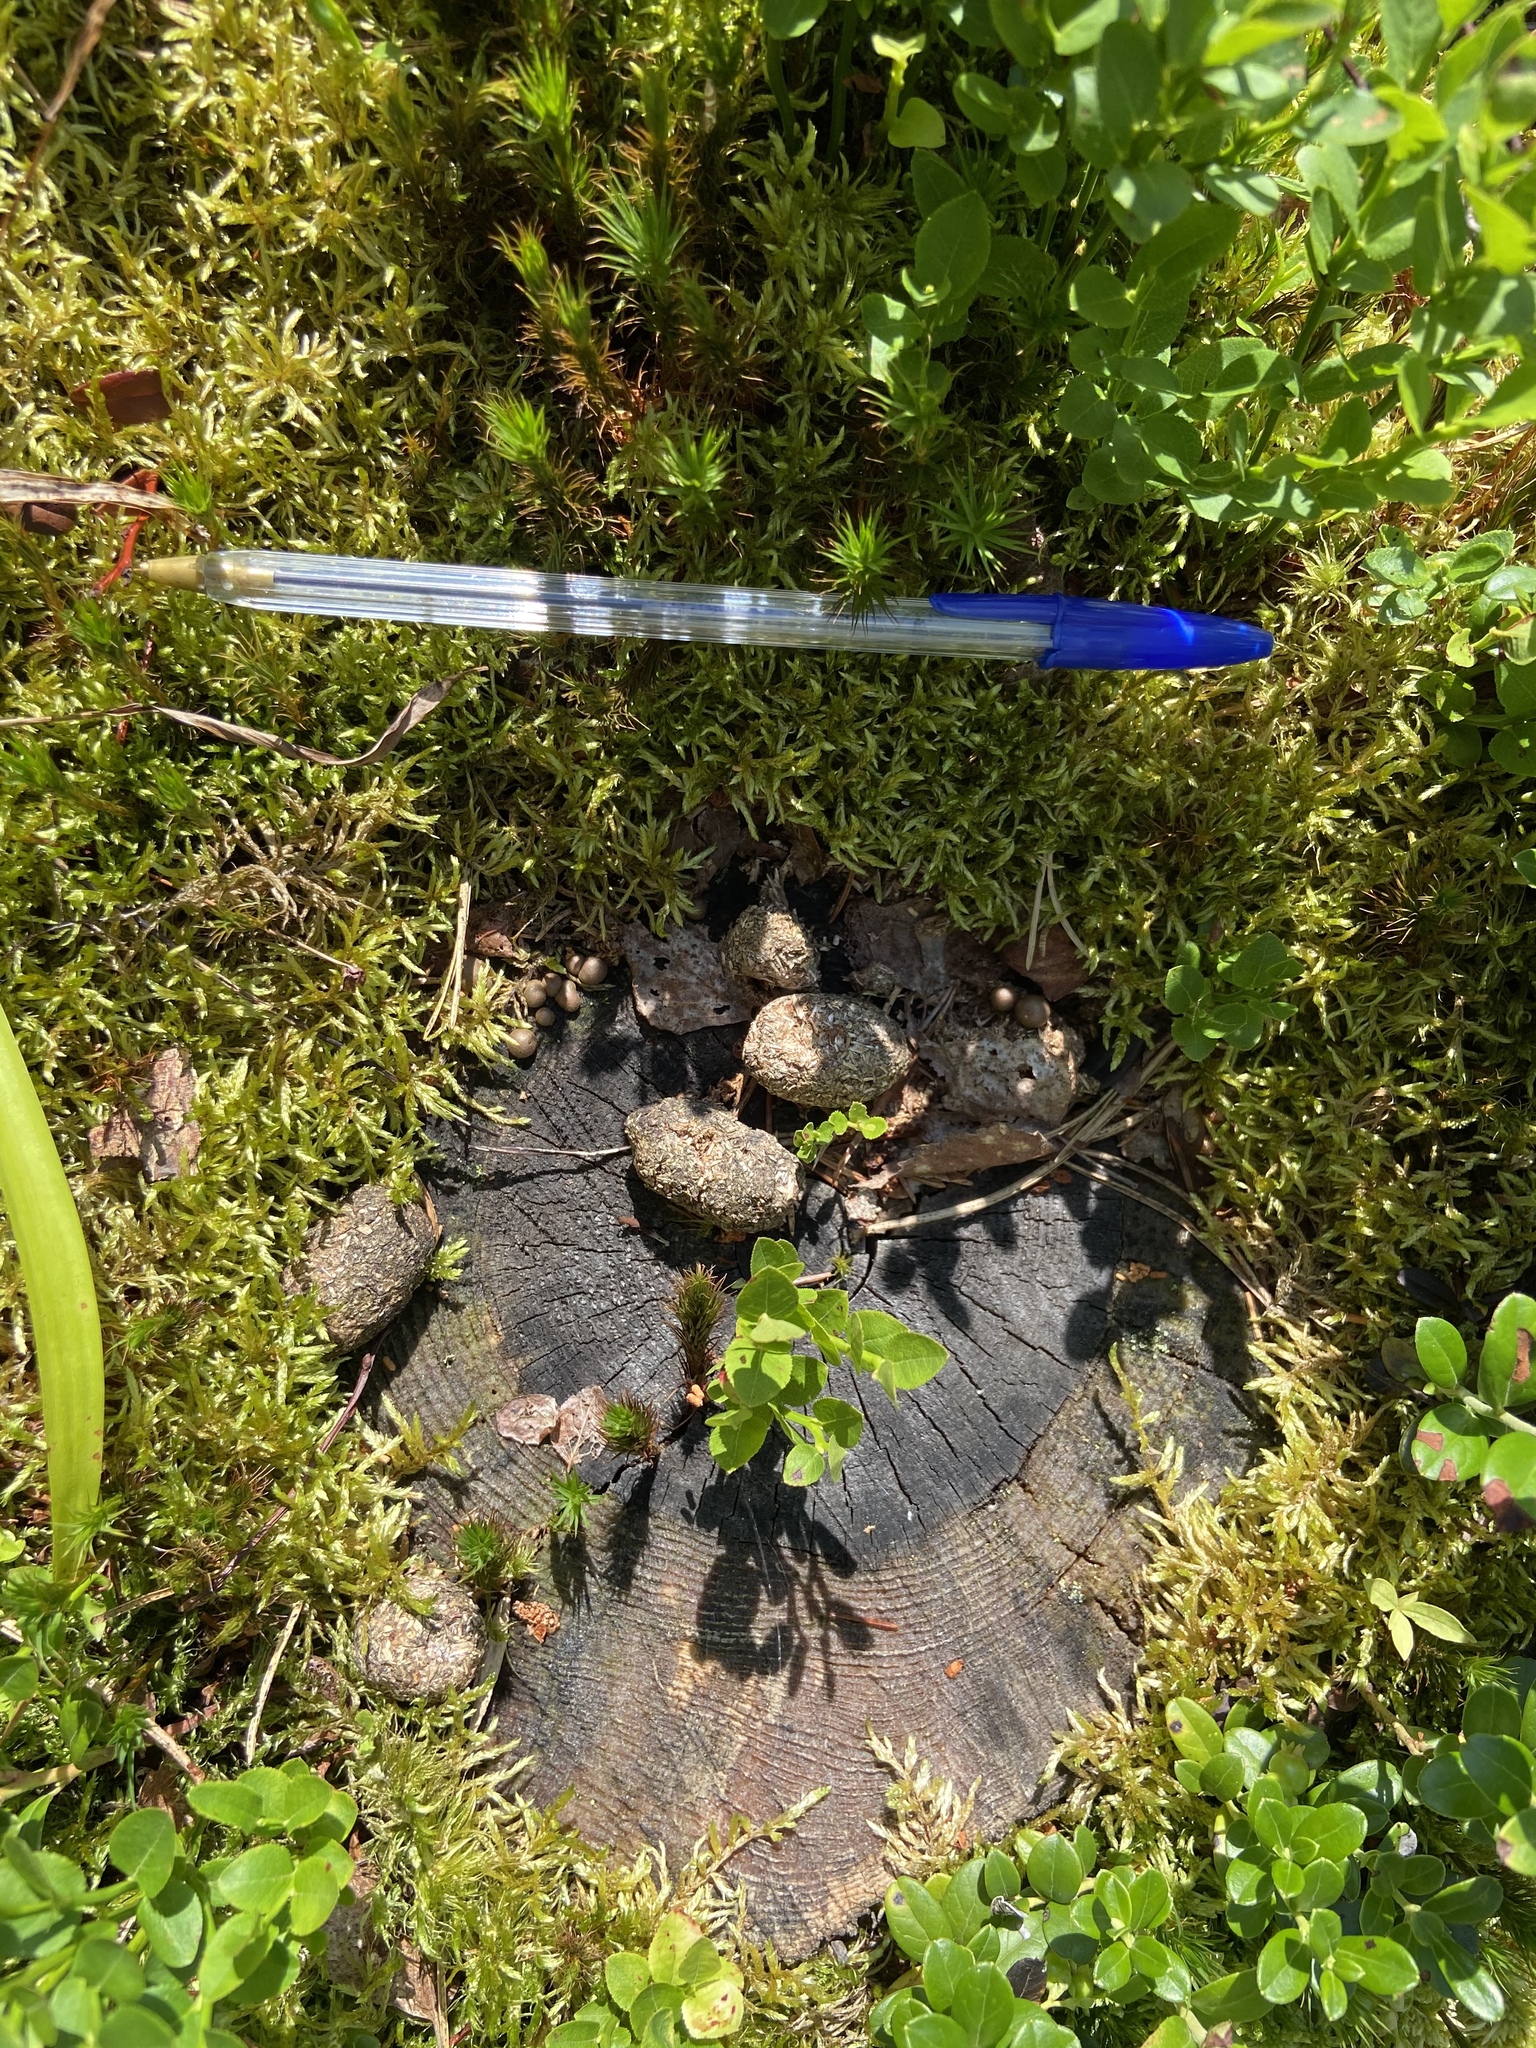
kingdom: Animalia
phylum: Chordata
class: Mammalia
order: Artiodactyla
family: Cervidae
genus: Alces
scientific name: Alces alces
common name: Moose
